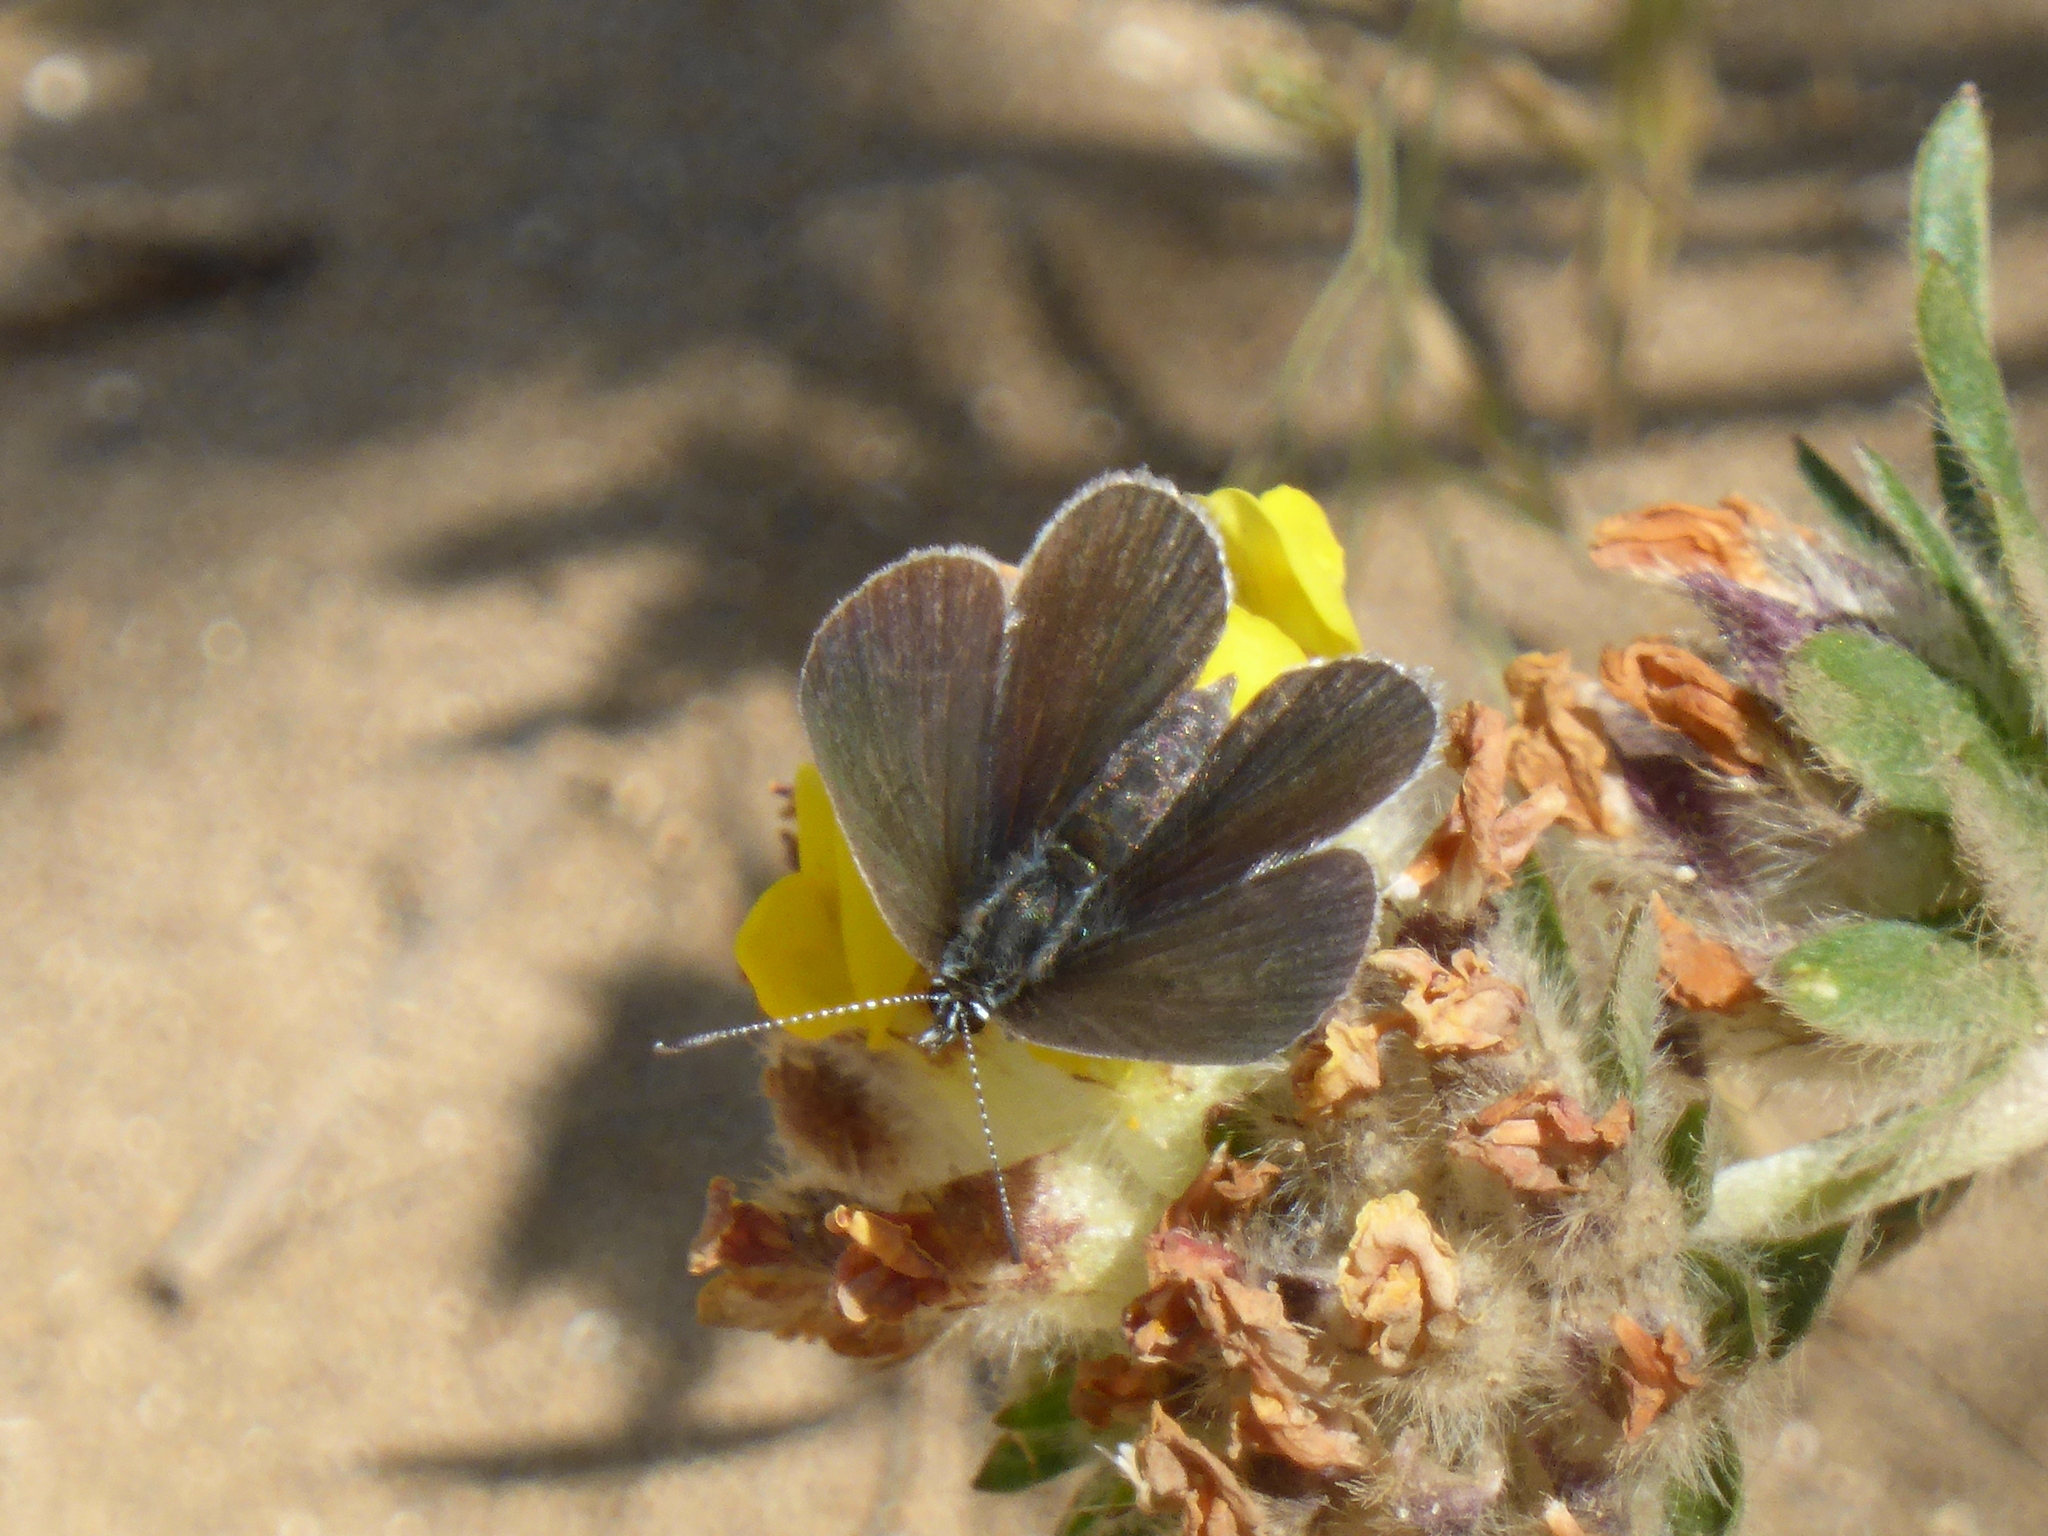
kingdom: Animalia
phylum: Arthropoda
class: Insecta
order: Lepidoptera
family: Lycaenidae
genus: Cupido
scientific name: Cupido minimus
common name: Small blue
